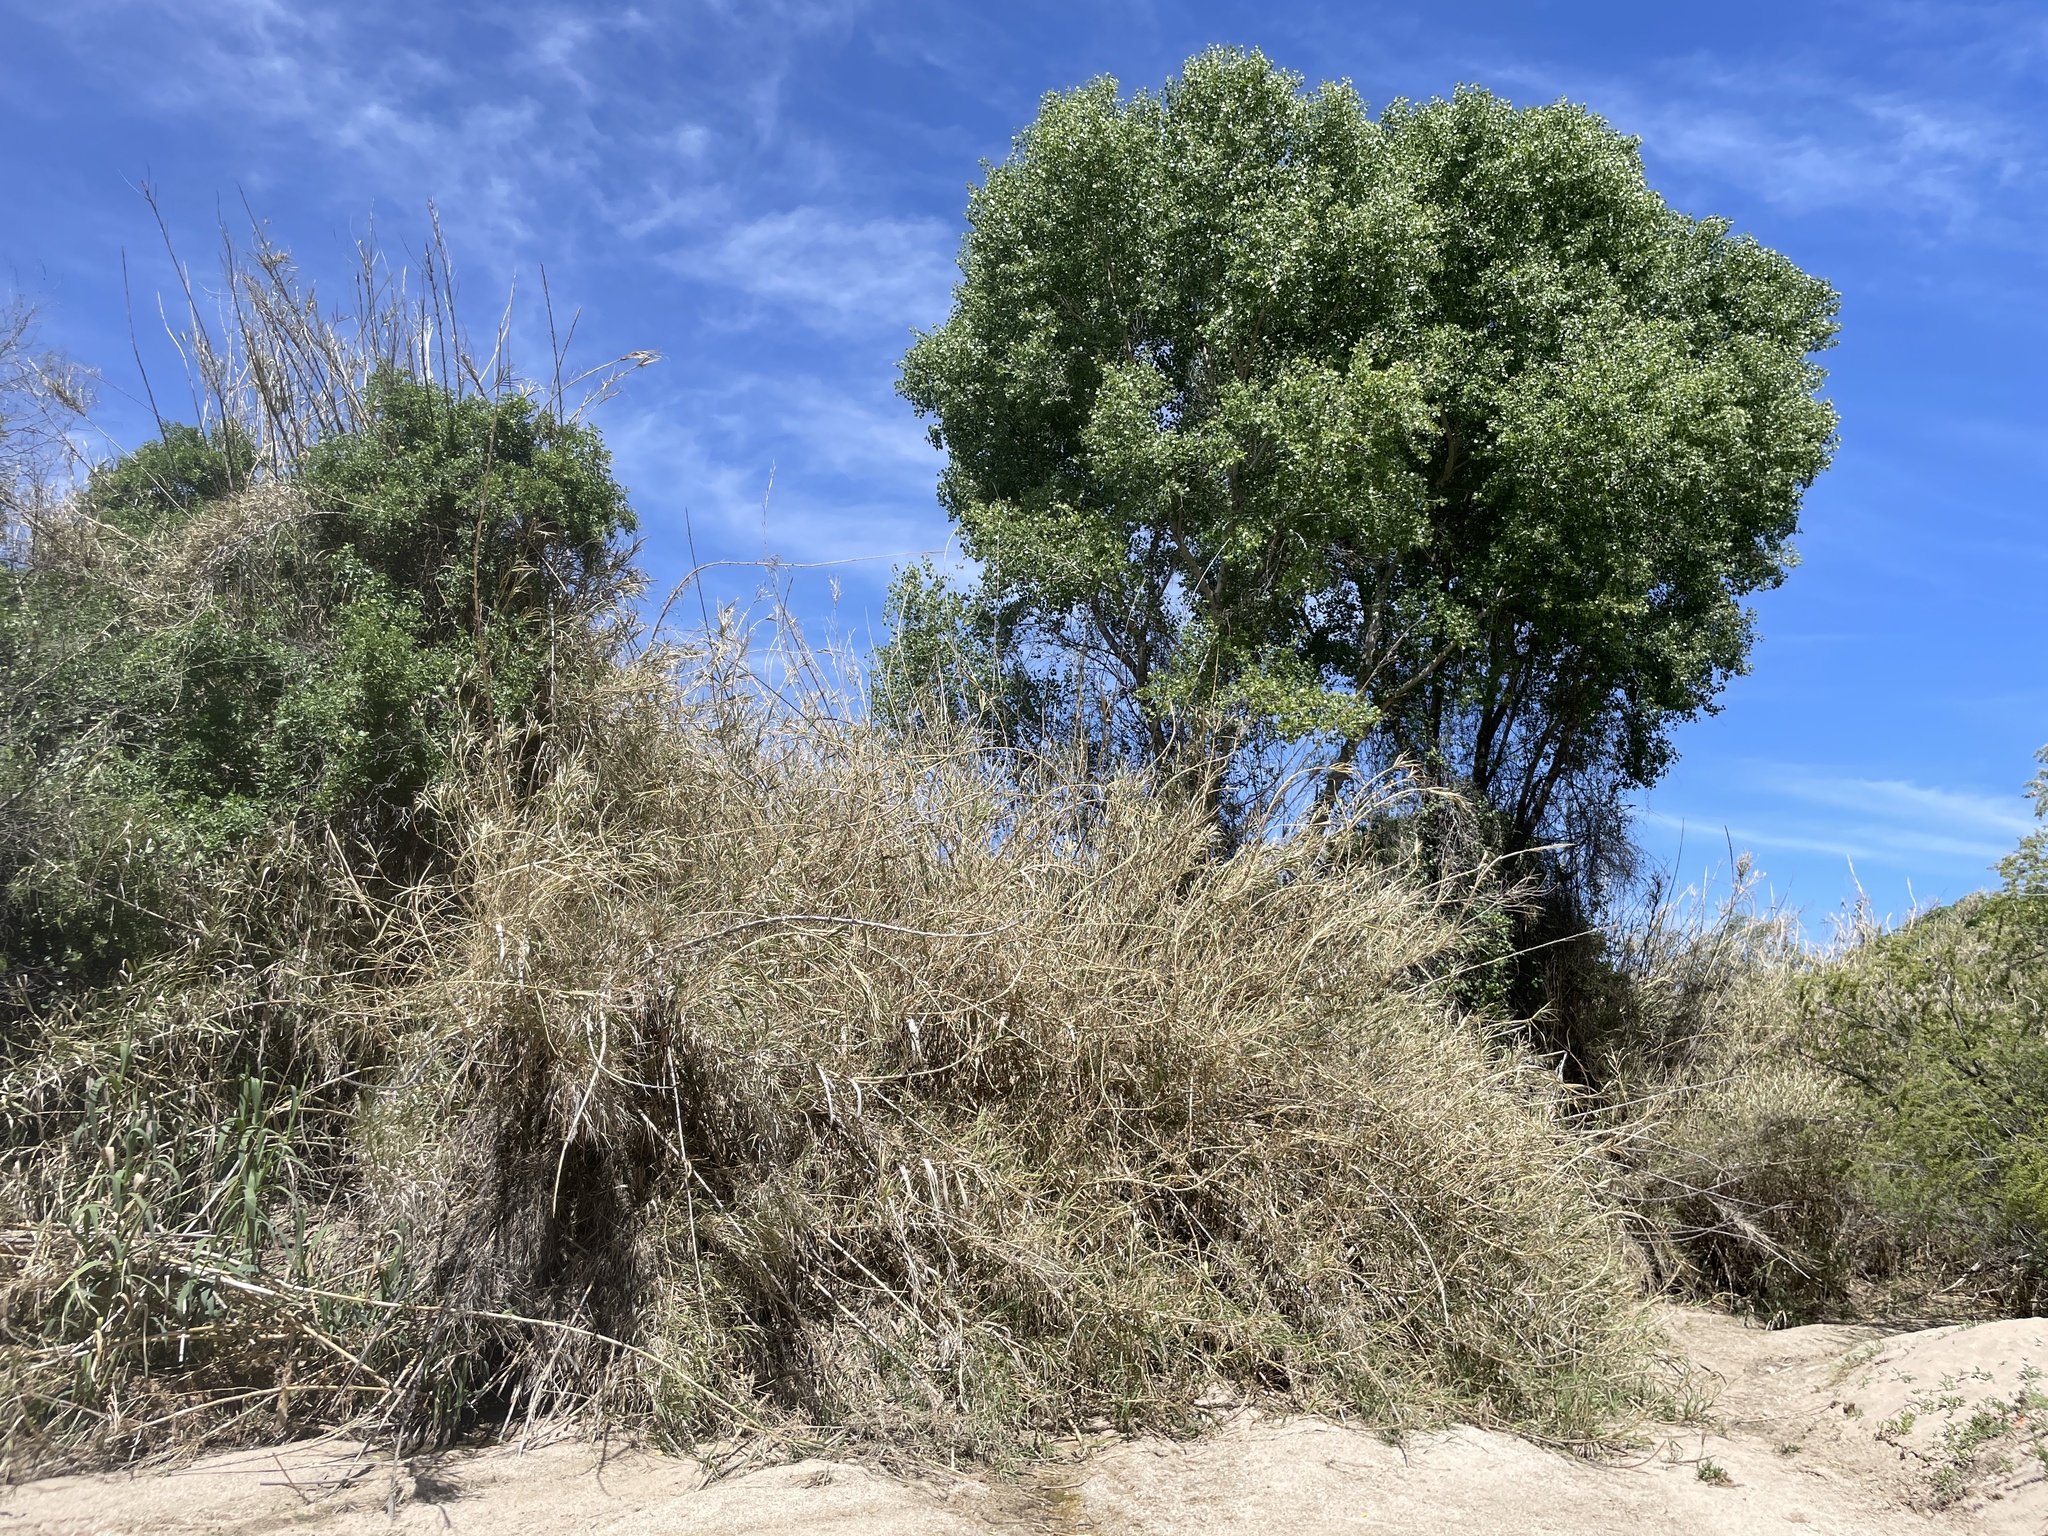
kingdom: Plantae
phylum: Tracheophyta
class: Liliopsida
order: Poales
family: Poaceae
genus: Arundo
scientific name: Arundo donax
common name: Giant reed
